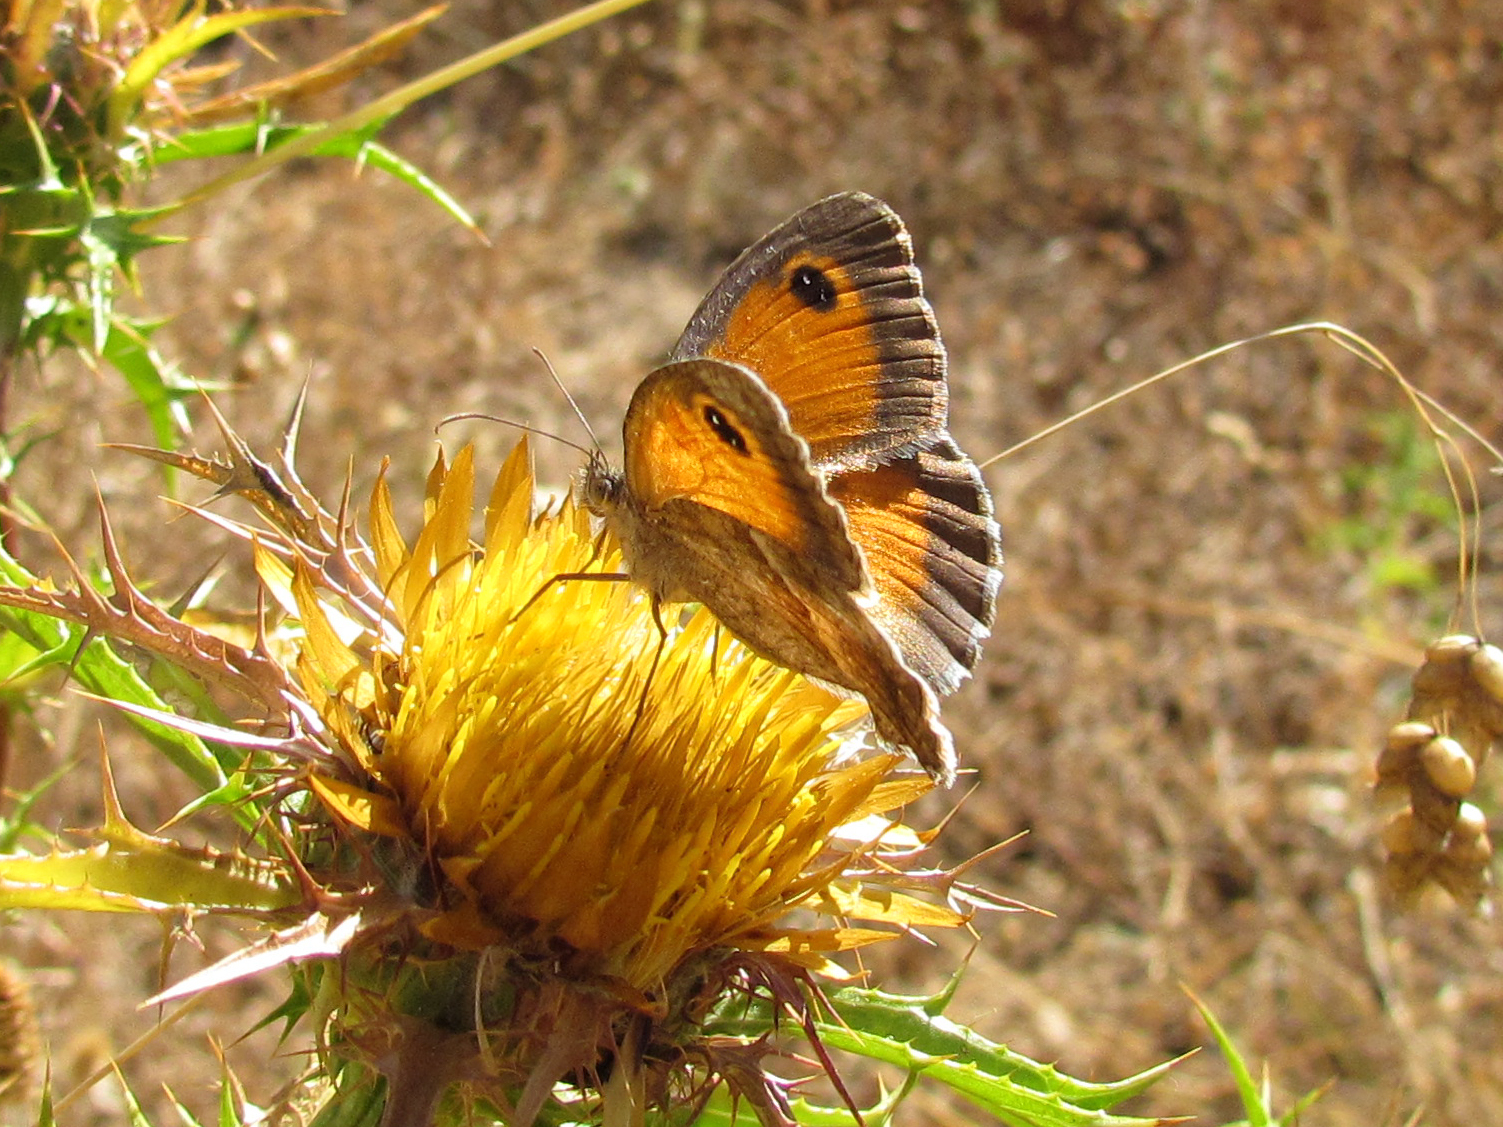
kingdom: Animalia
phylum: Arthropoda
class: Insecta
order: Lepidoptera
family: Nymphalidae
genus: Pyronia
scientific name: Pyronia cecilia
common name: Southern gatekeeper
